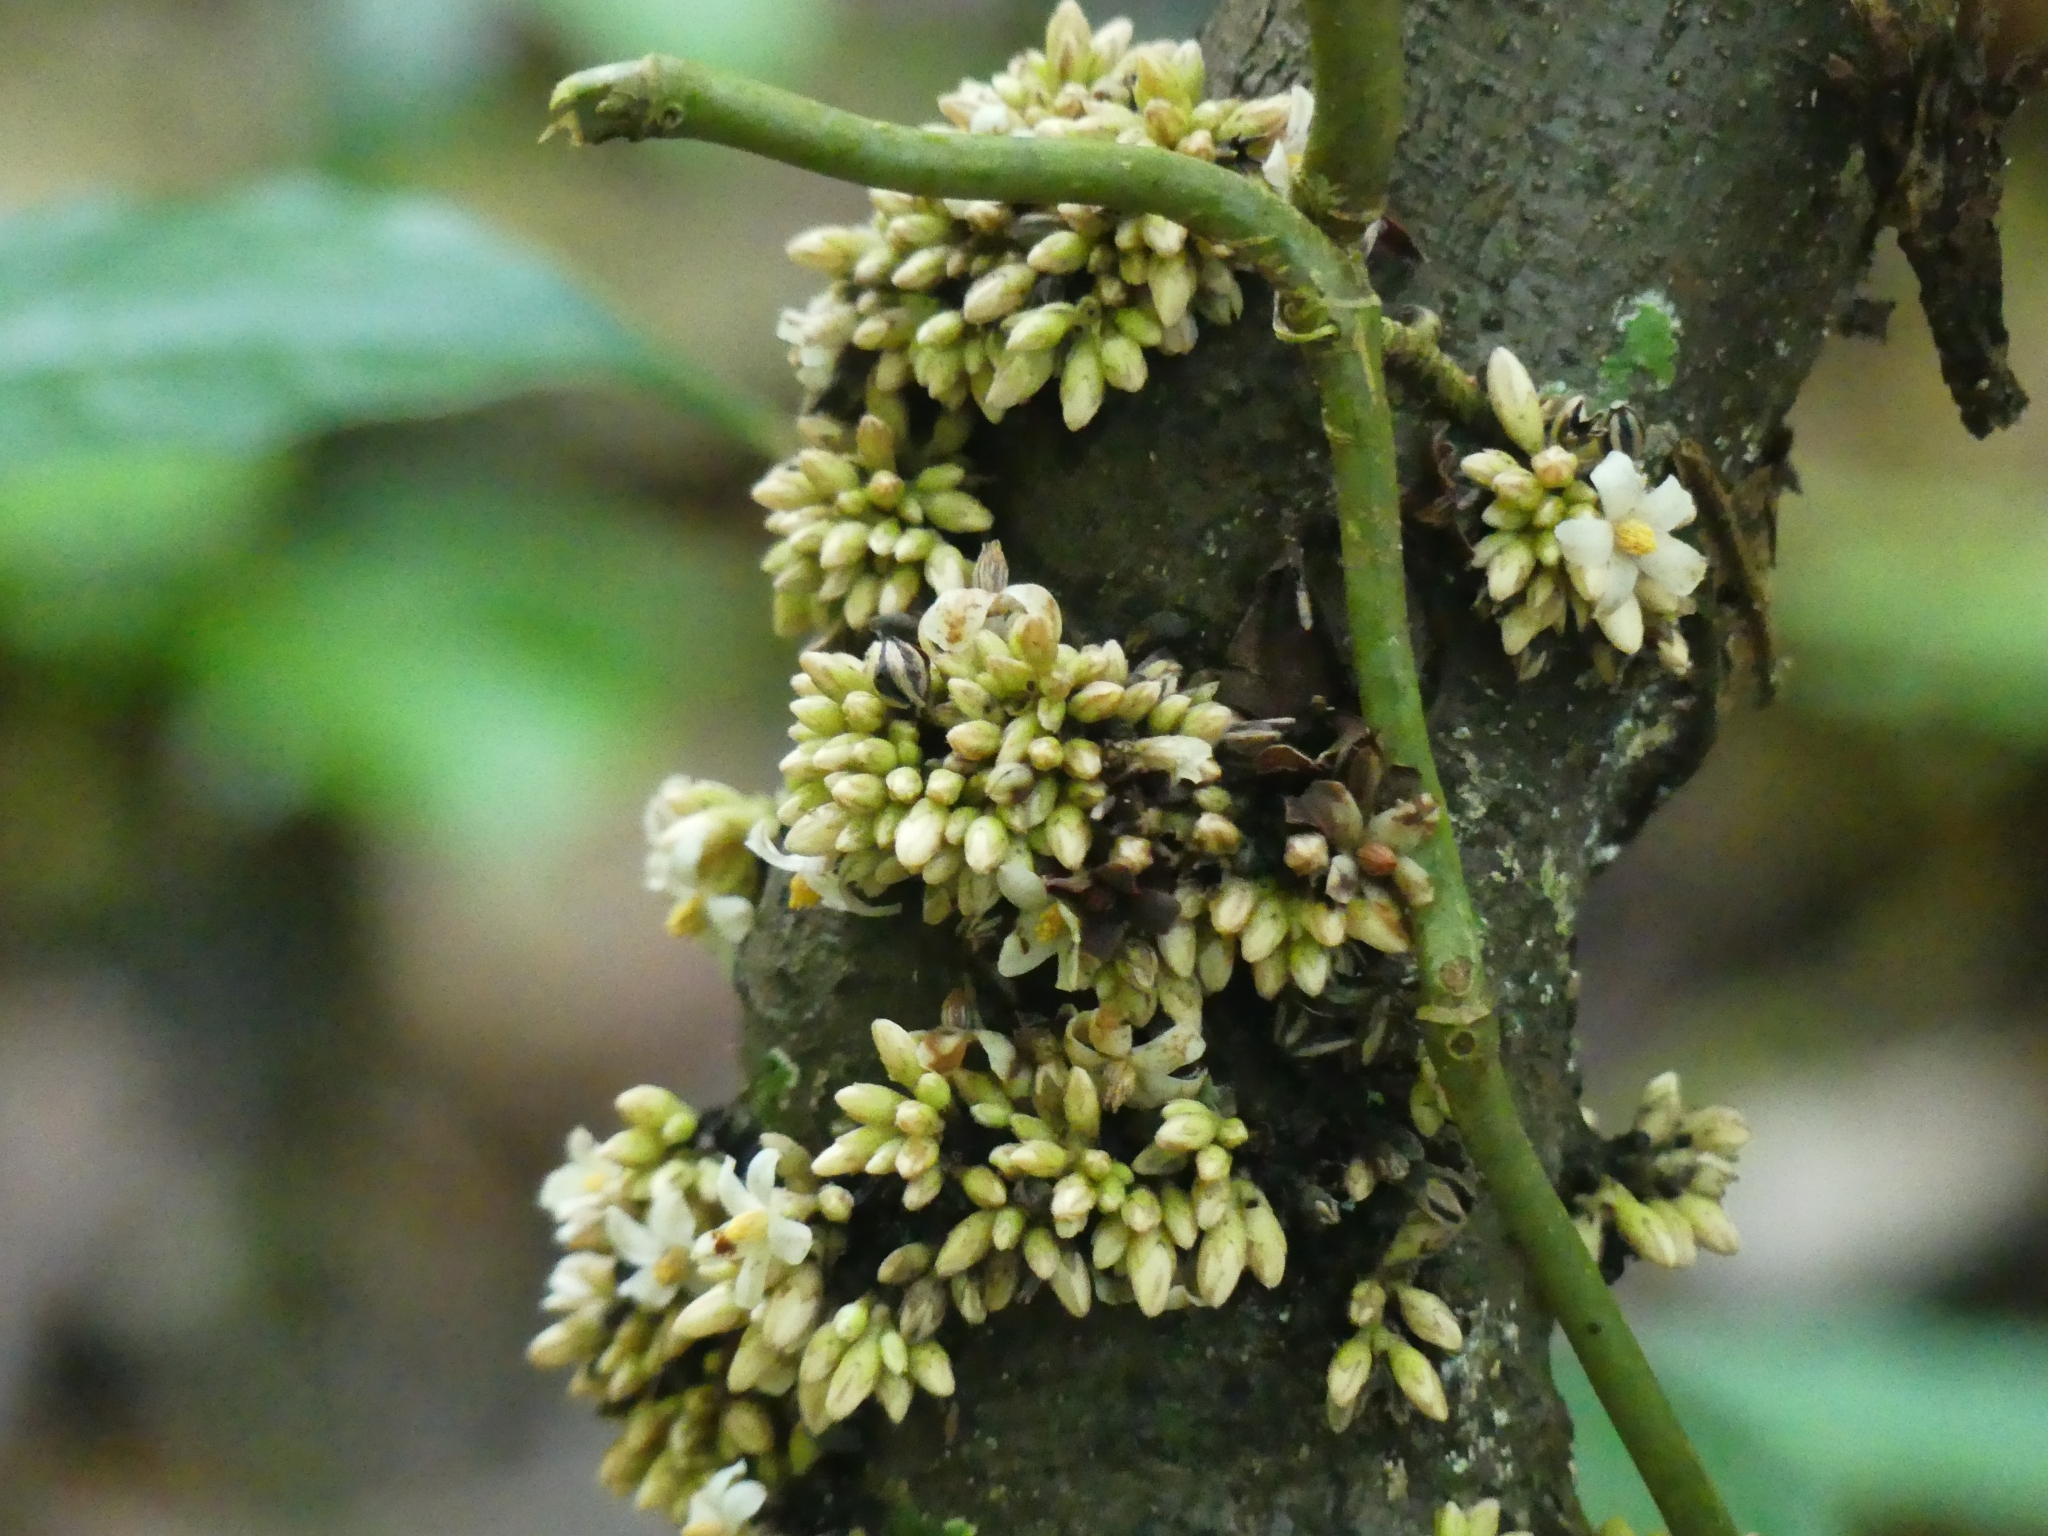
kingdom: Plantae
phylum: Tracheophyta
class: Magnoliopsida
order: Ericales
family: Ebenaceae
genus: Diospyros
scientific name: Diospyros ropourea
